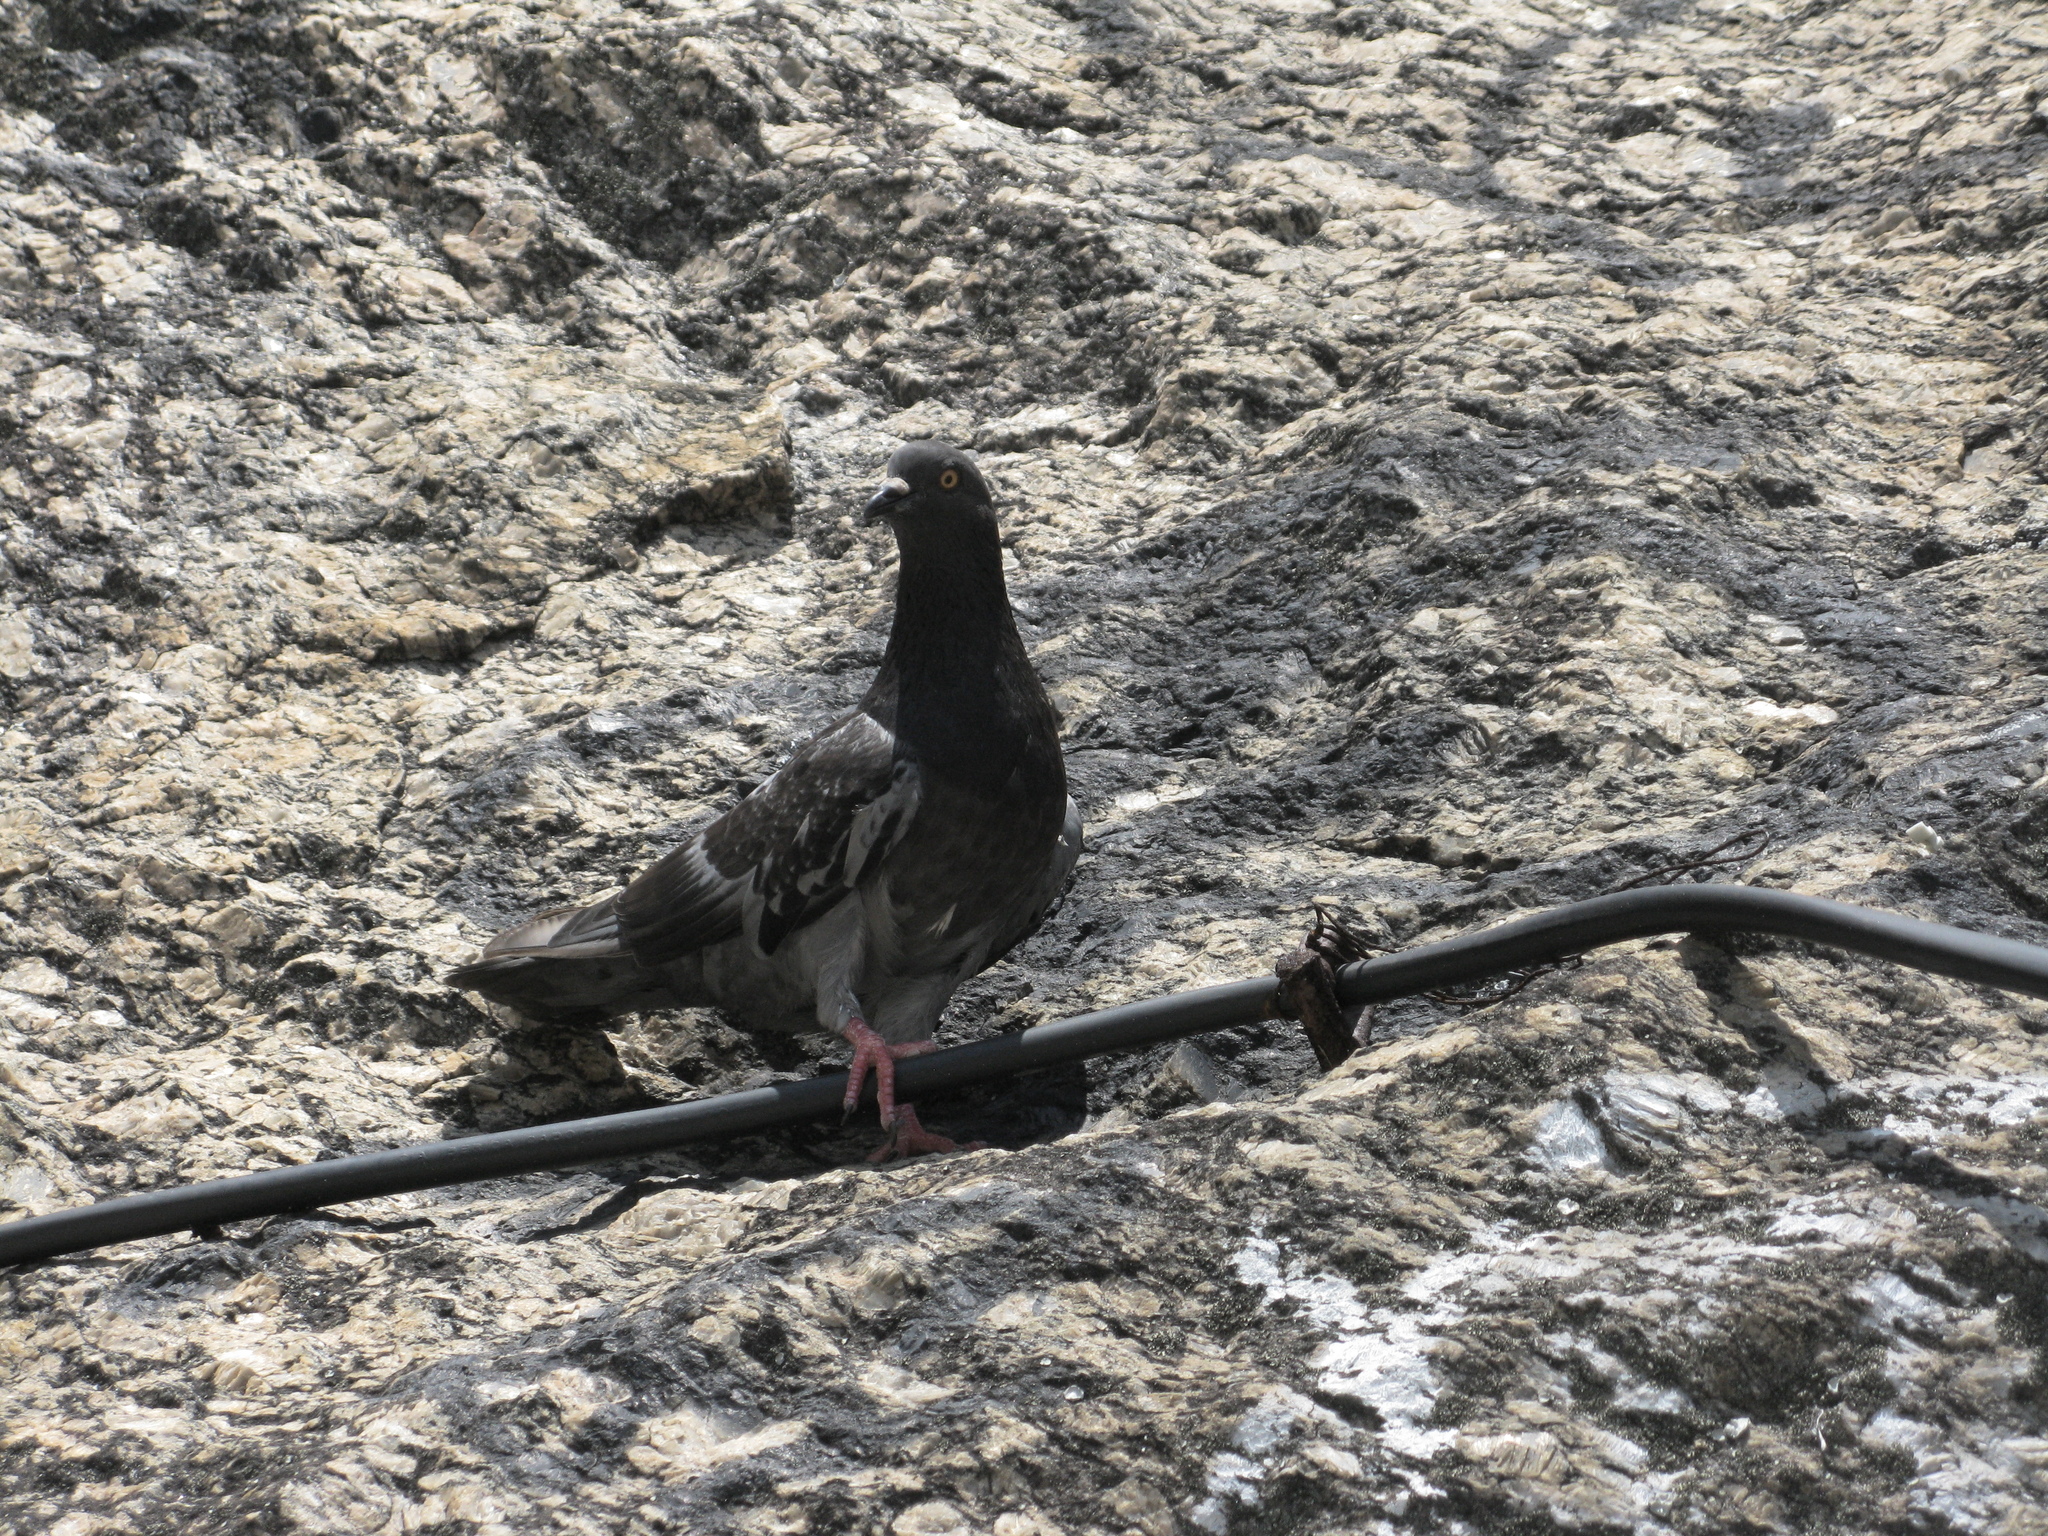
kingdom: Animalia
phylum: Chordata
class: Aves
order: Columbiformes
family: Columbidae
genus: Columba
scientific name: Columba livia
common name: Rock pigeon
